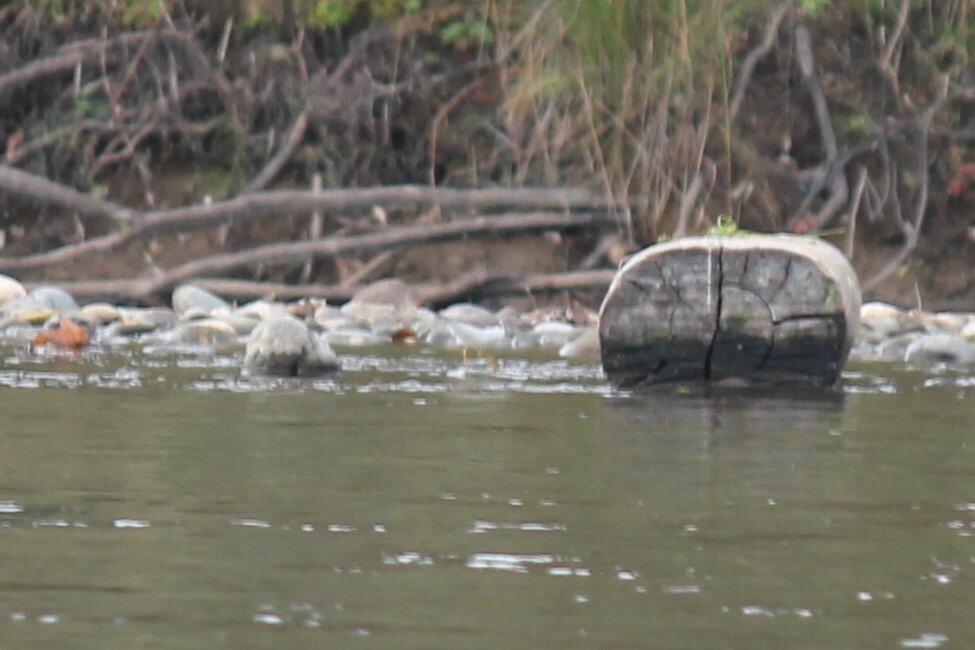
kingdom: Animalia
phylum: Chordata
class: Aves
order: Charadriiformes
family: Scolopacidae
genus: Actitis
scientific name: Actitis macularius
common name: Spotted sandpiper
